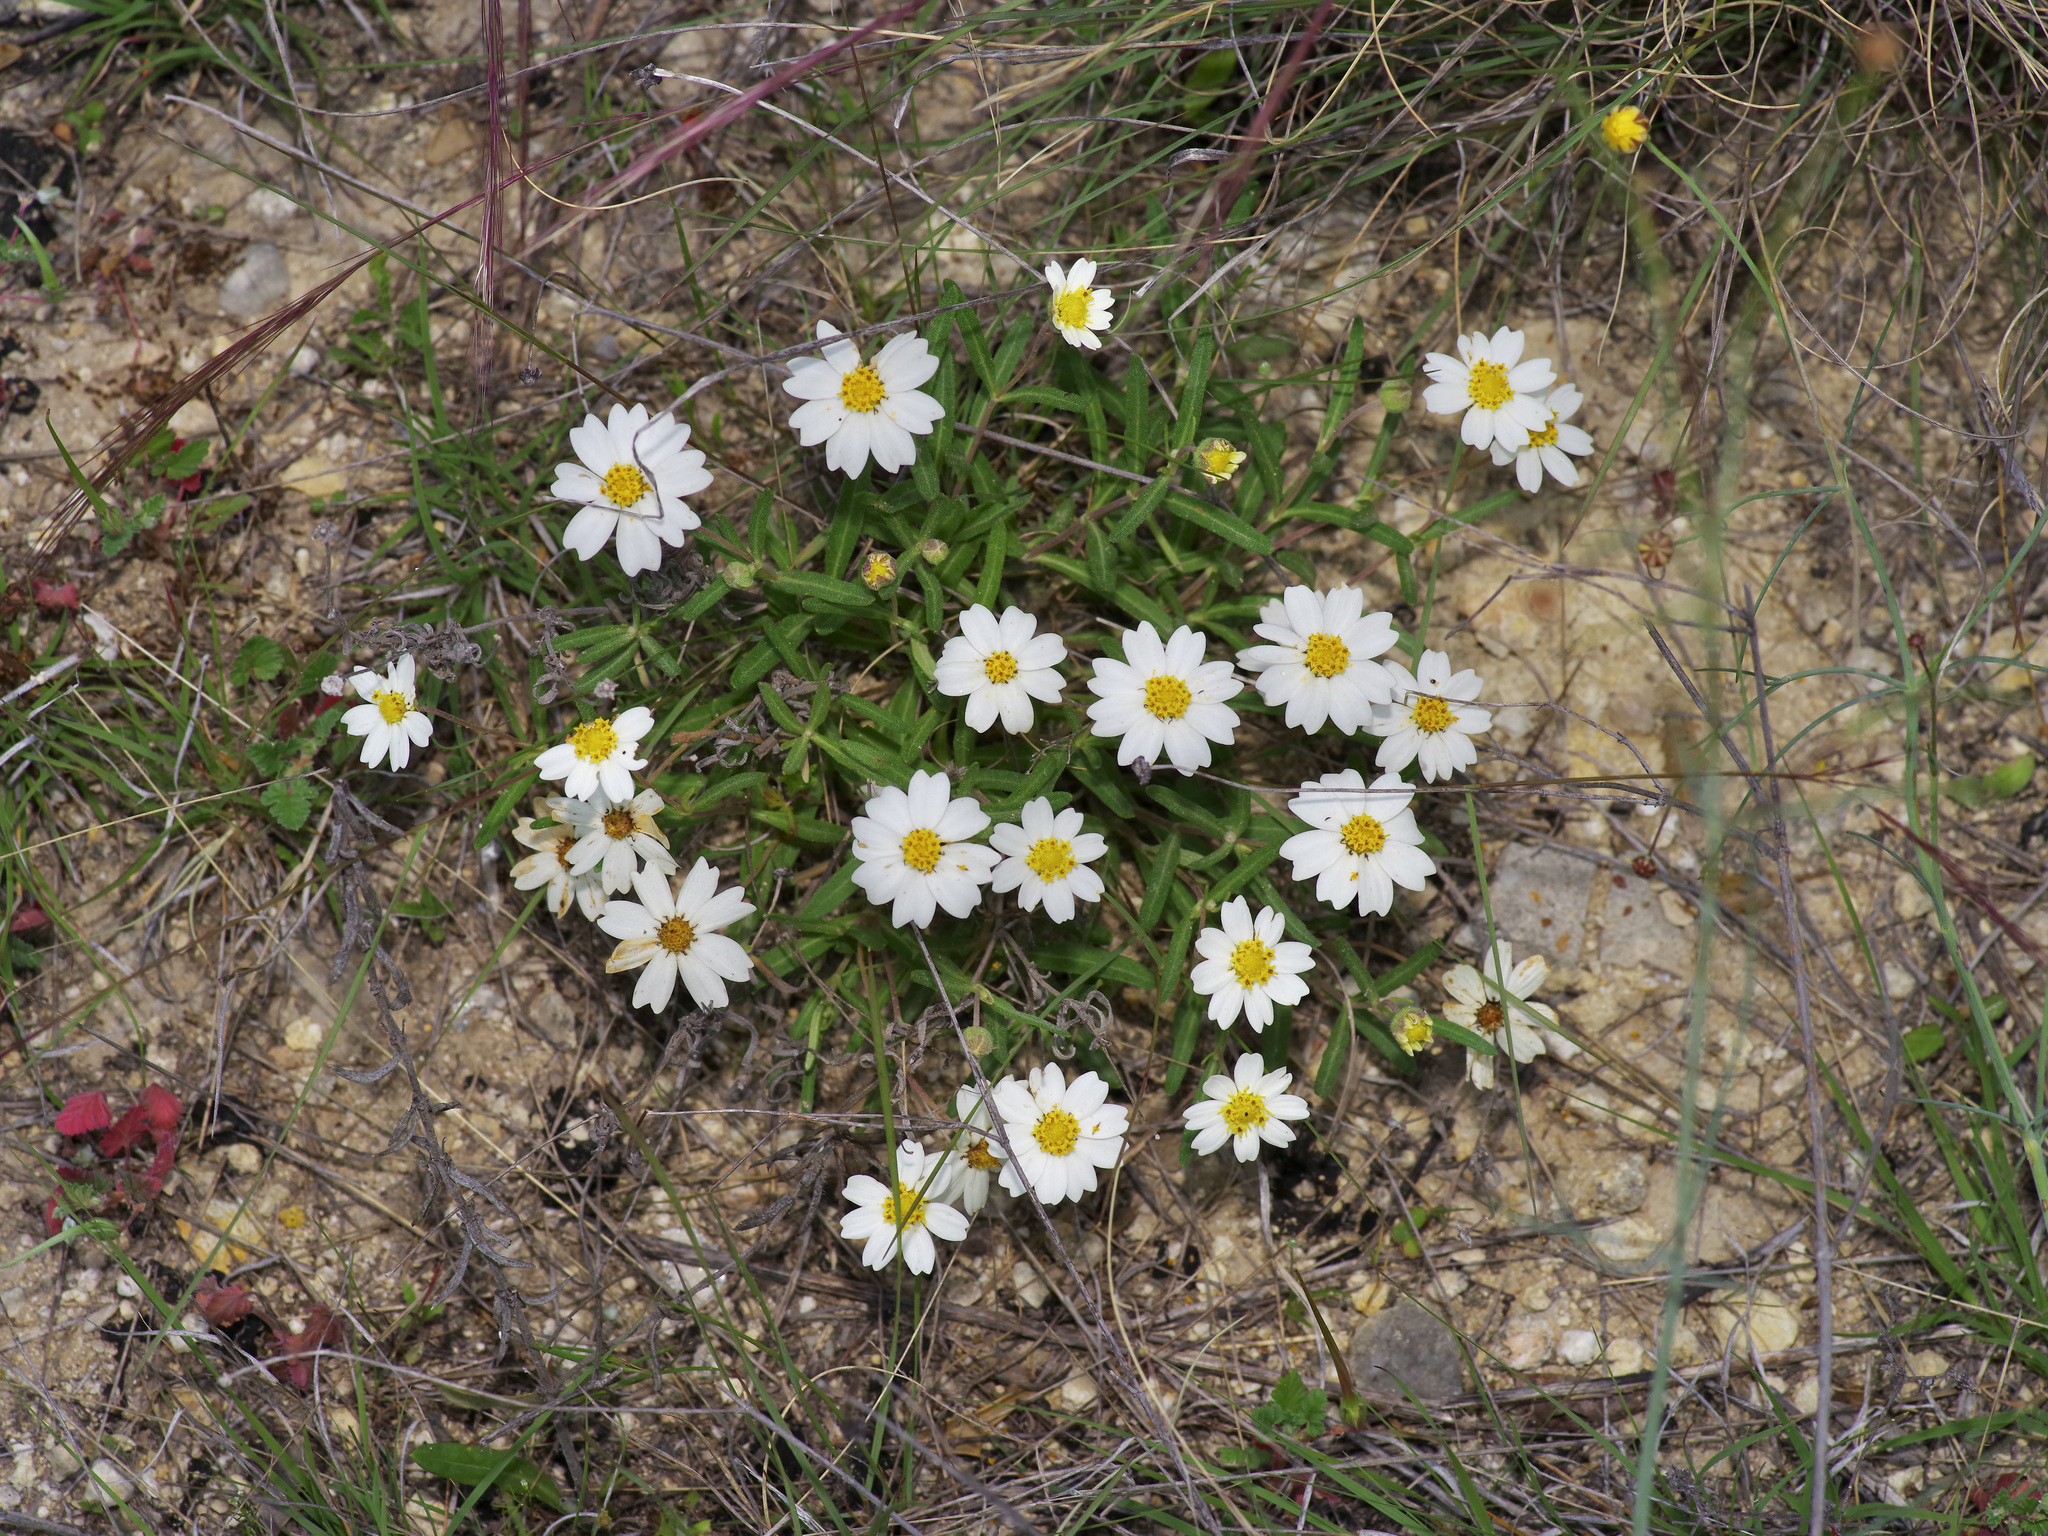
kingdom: Plantae
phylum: Tracheophyta
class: Magnoliopsida
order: Asterales
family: Asteraceae
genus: Melampodium
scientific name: Melampodium leucanthum
